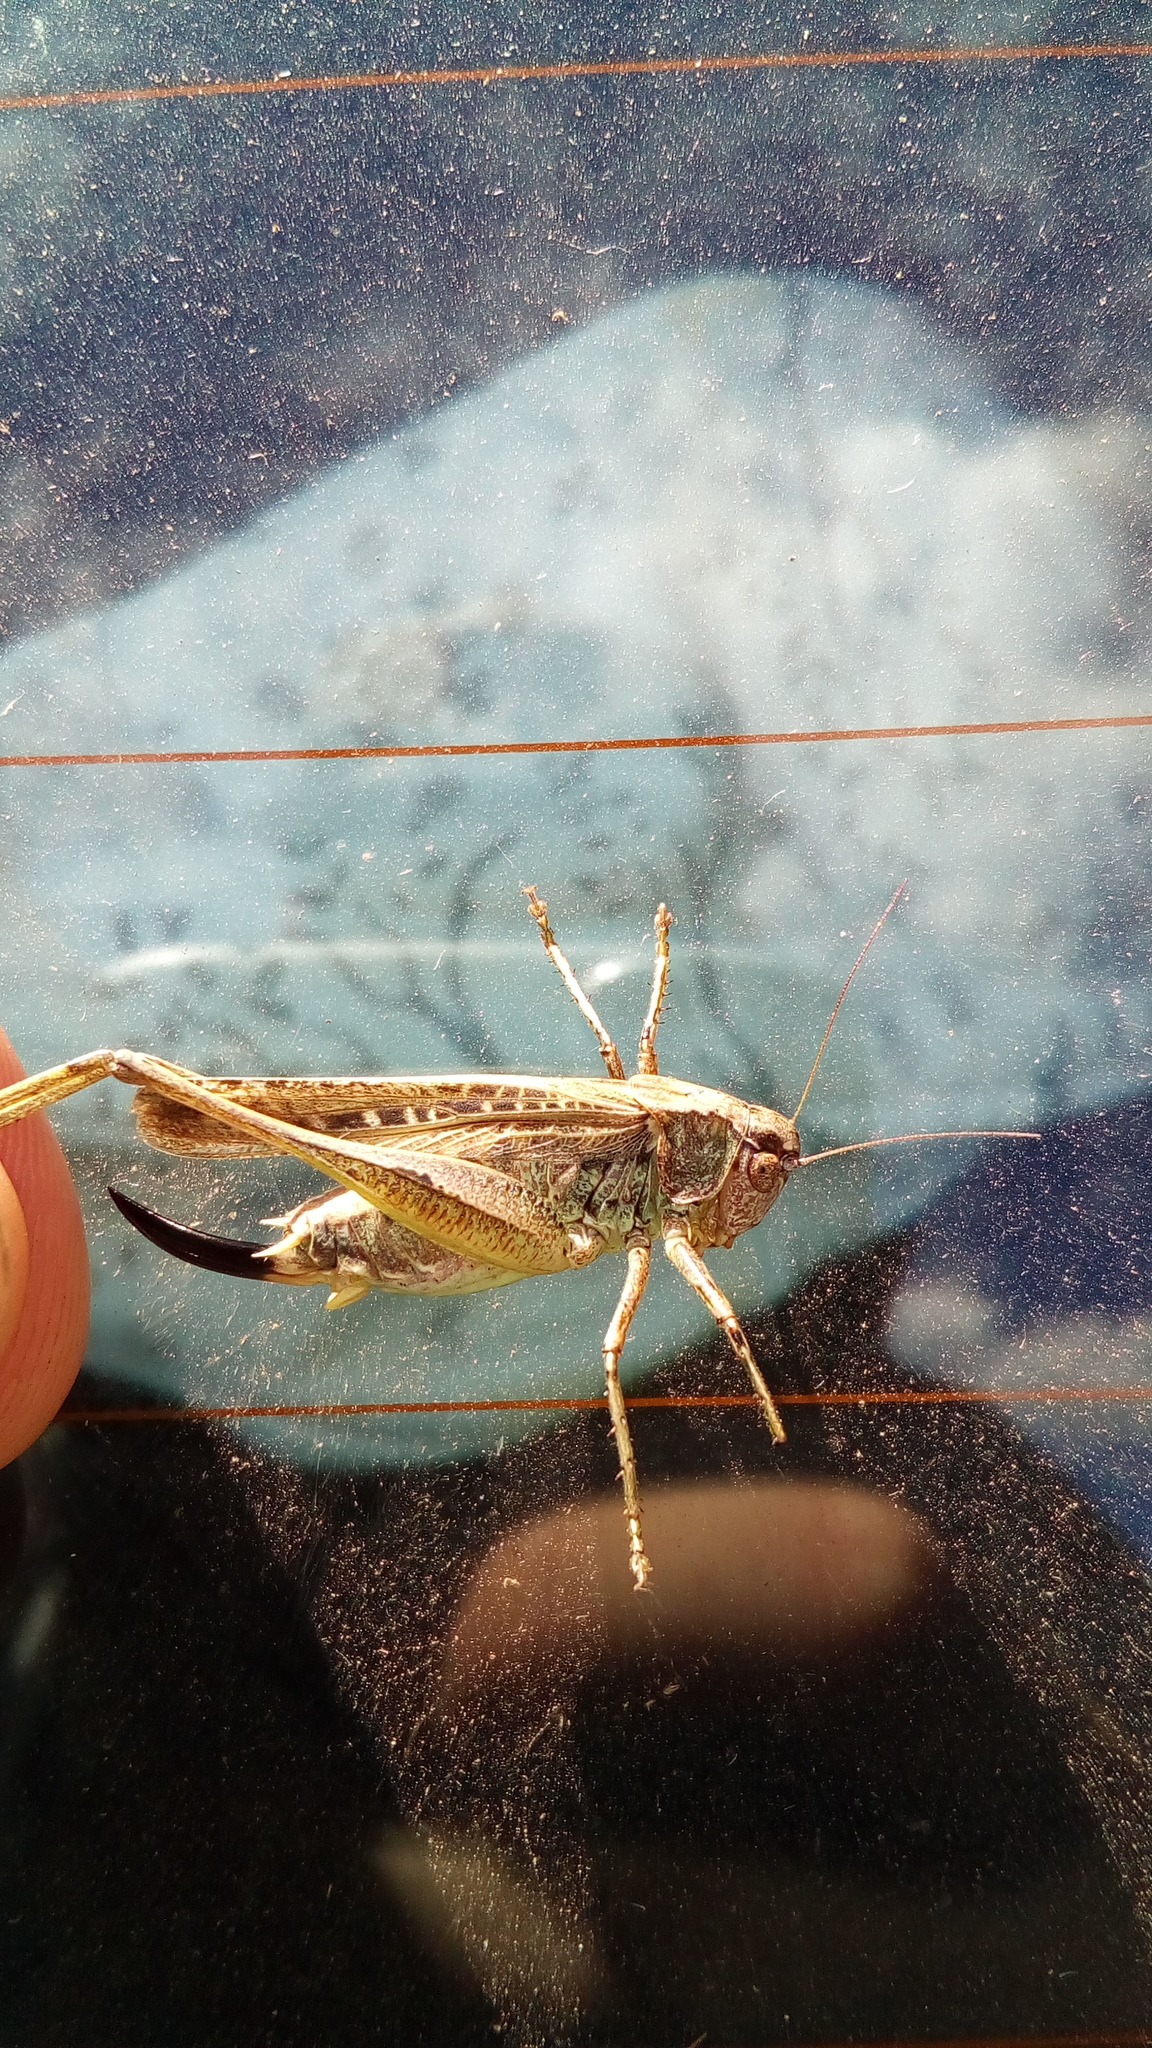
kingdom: Animalia
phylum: Arthropoda
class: Insecta
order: Orthoptera
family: Tettigoniidae
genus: Platycleis
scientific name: Platycleis albopunctata
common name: Grey bush-cricket
